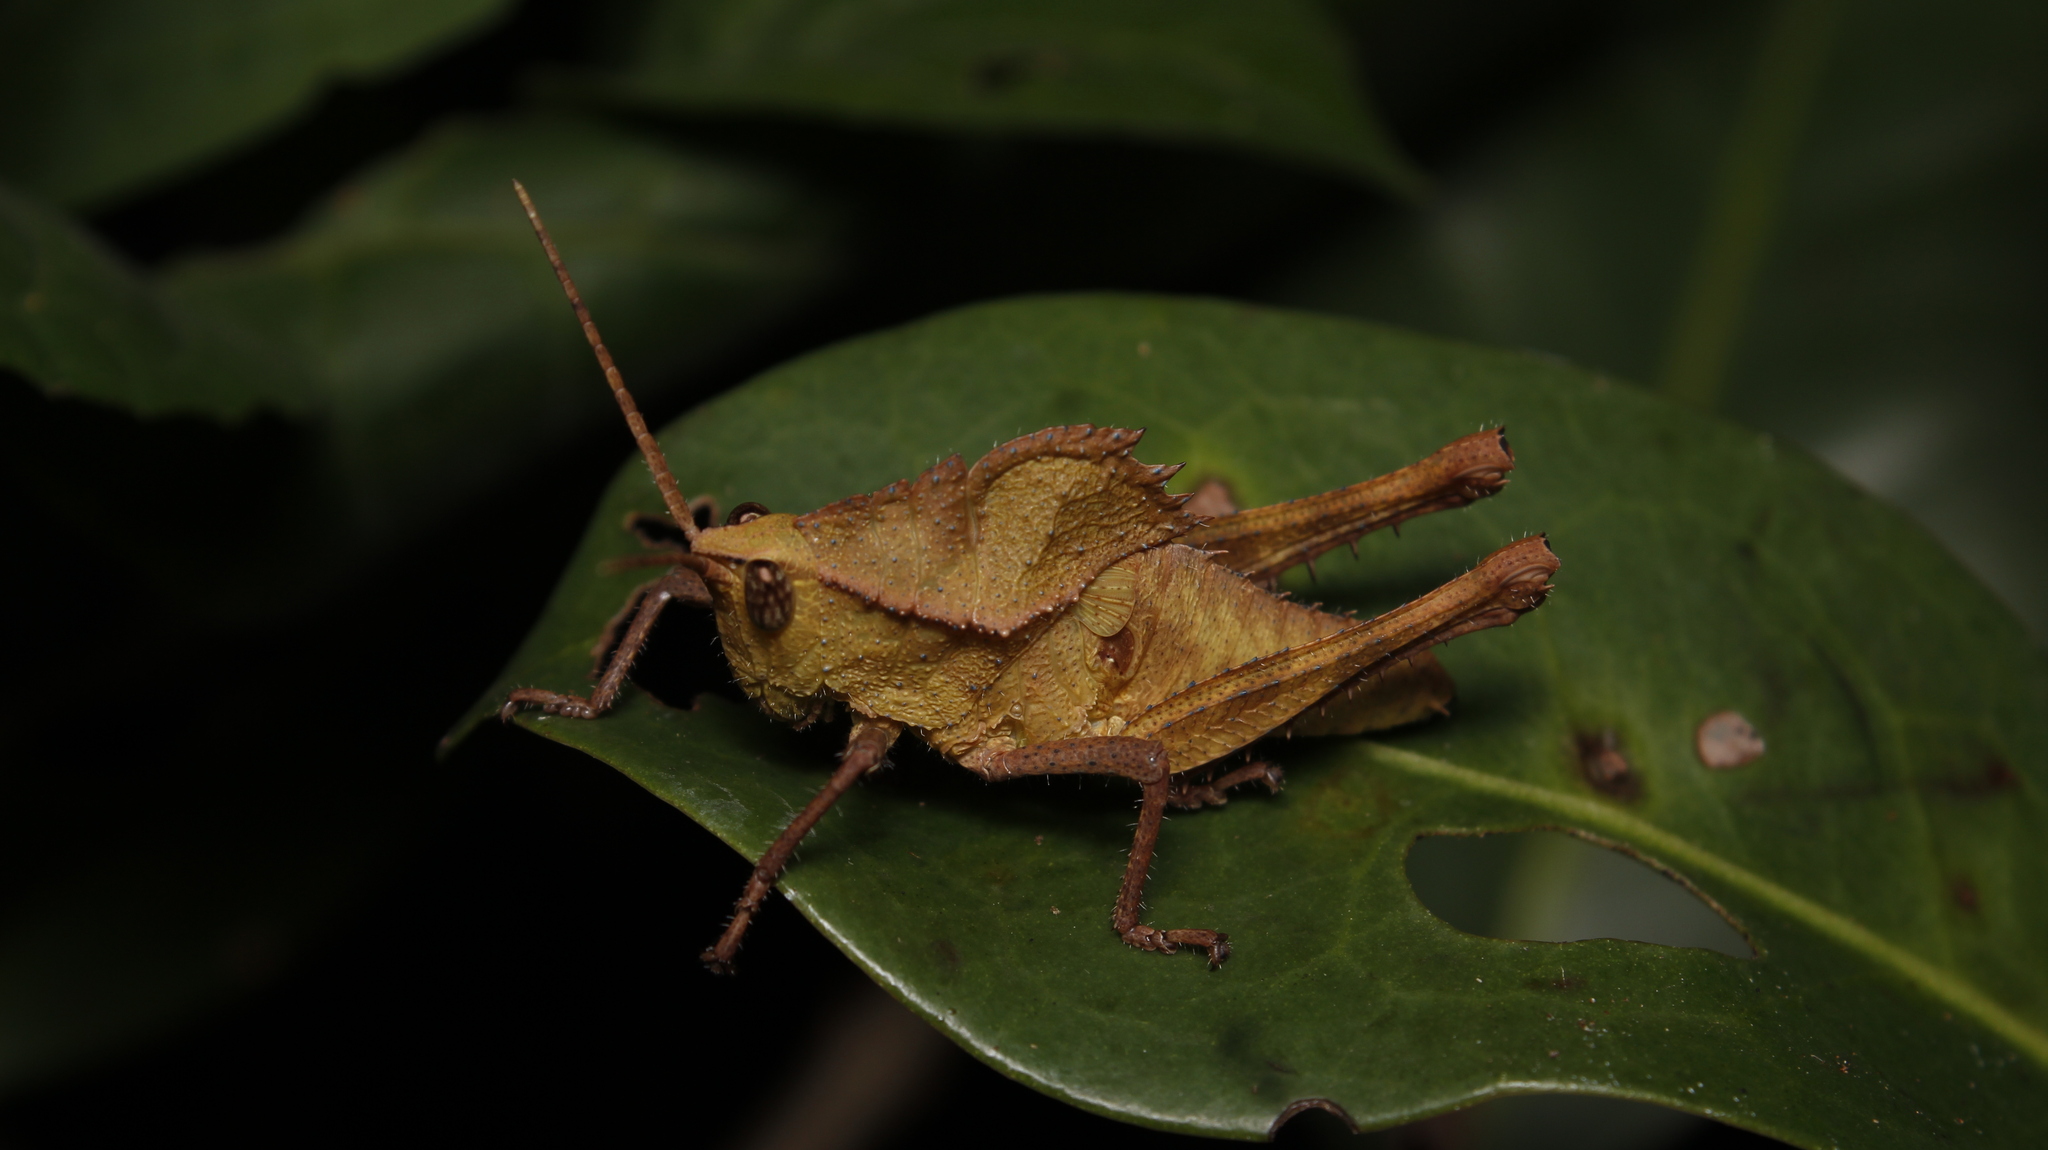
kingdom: Animalia
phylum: Arthropoda
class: Insecta
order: Orthoptera
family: Romaleidae
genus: Helionotus
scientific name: Helionotus mirabilis
